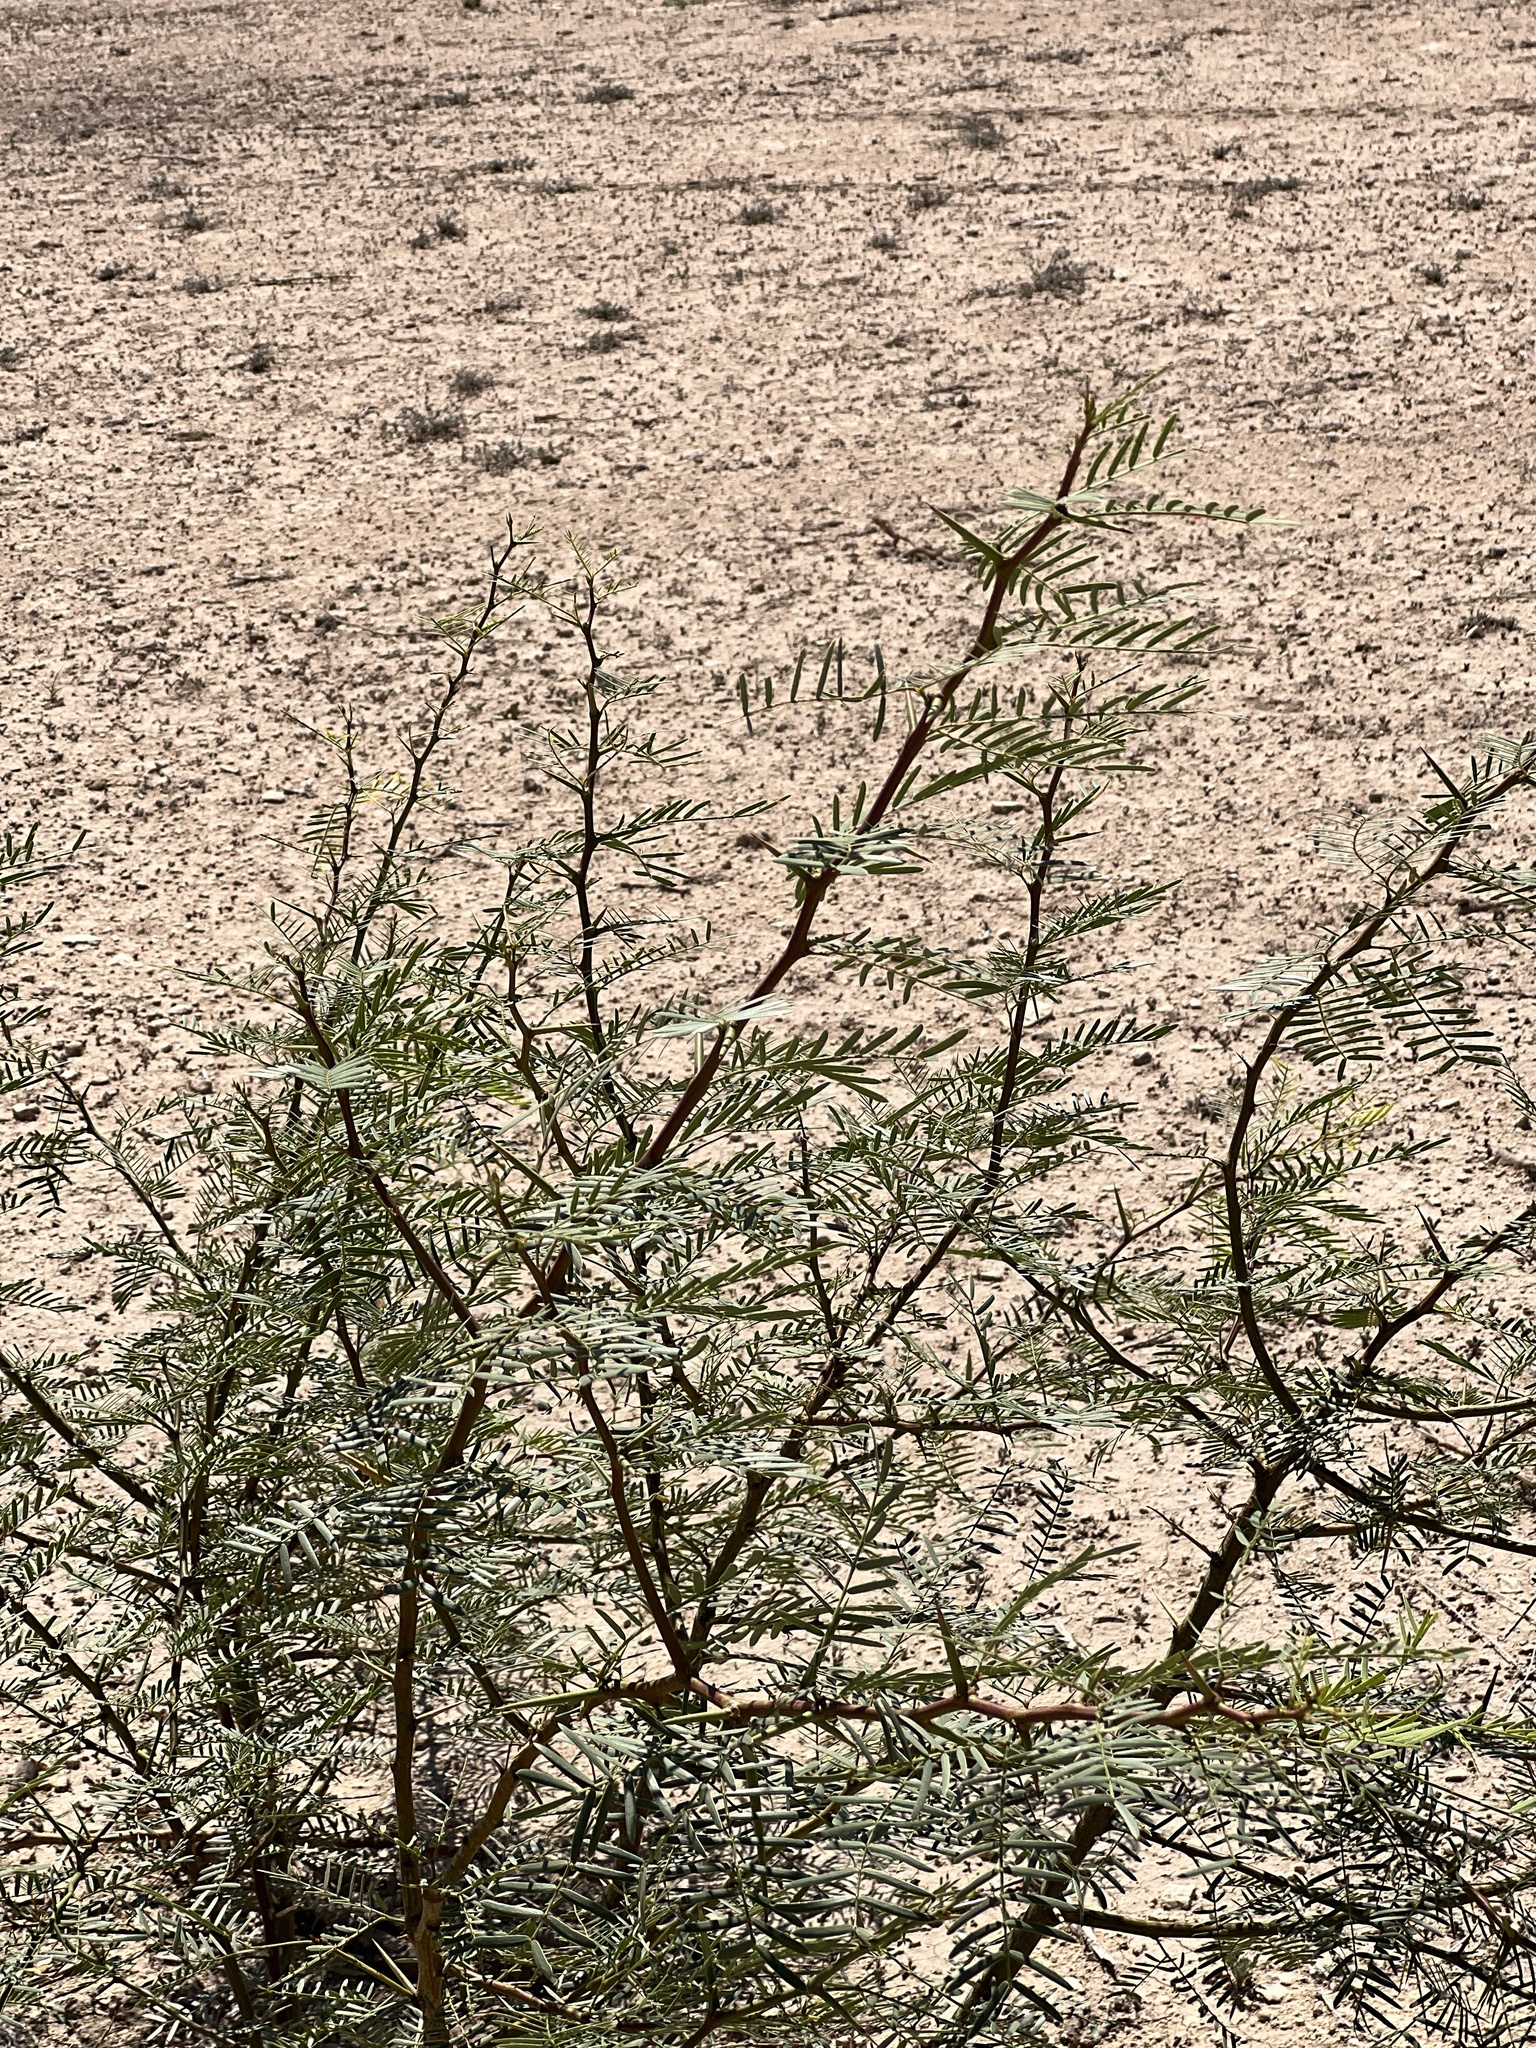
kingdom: Plantae
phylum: Tracheophyta
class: Magnoliopsida
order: Fabales
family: Fabaceae
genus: Prosopis
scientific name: Prosopis glandulosa
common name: Honey mesquite
